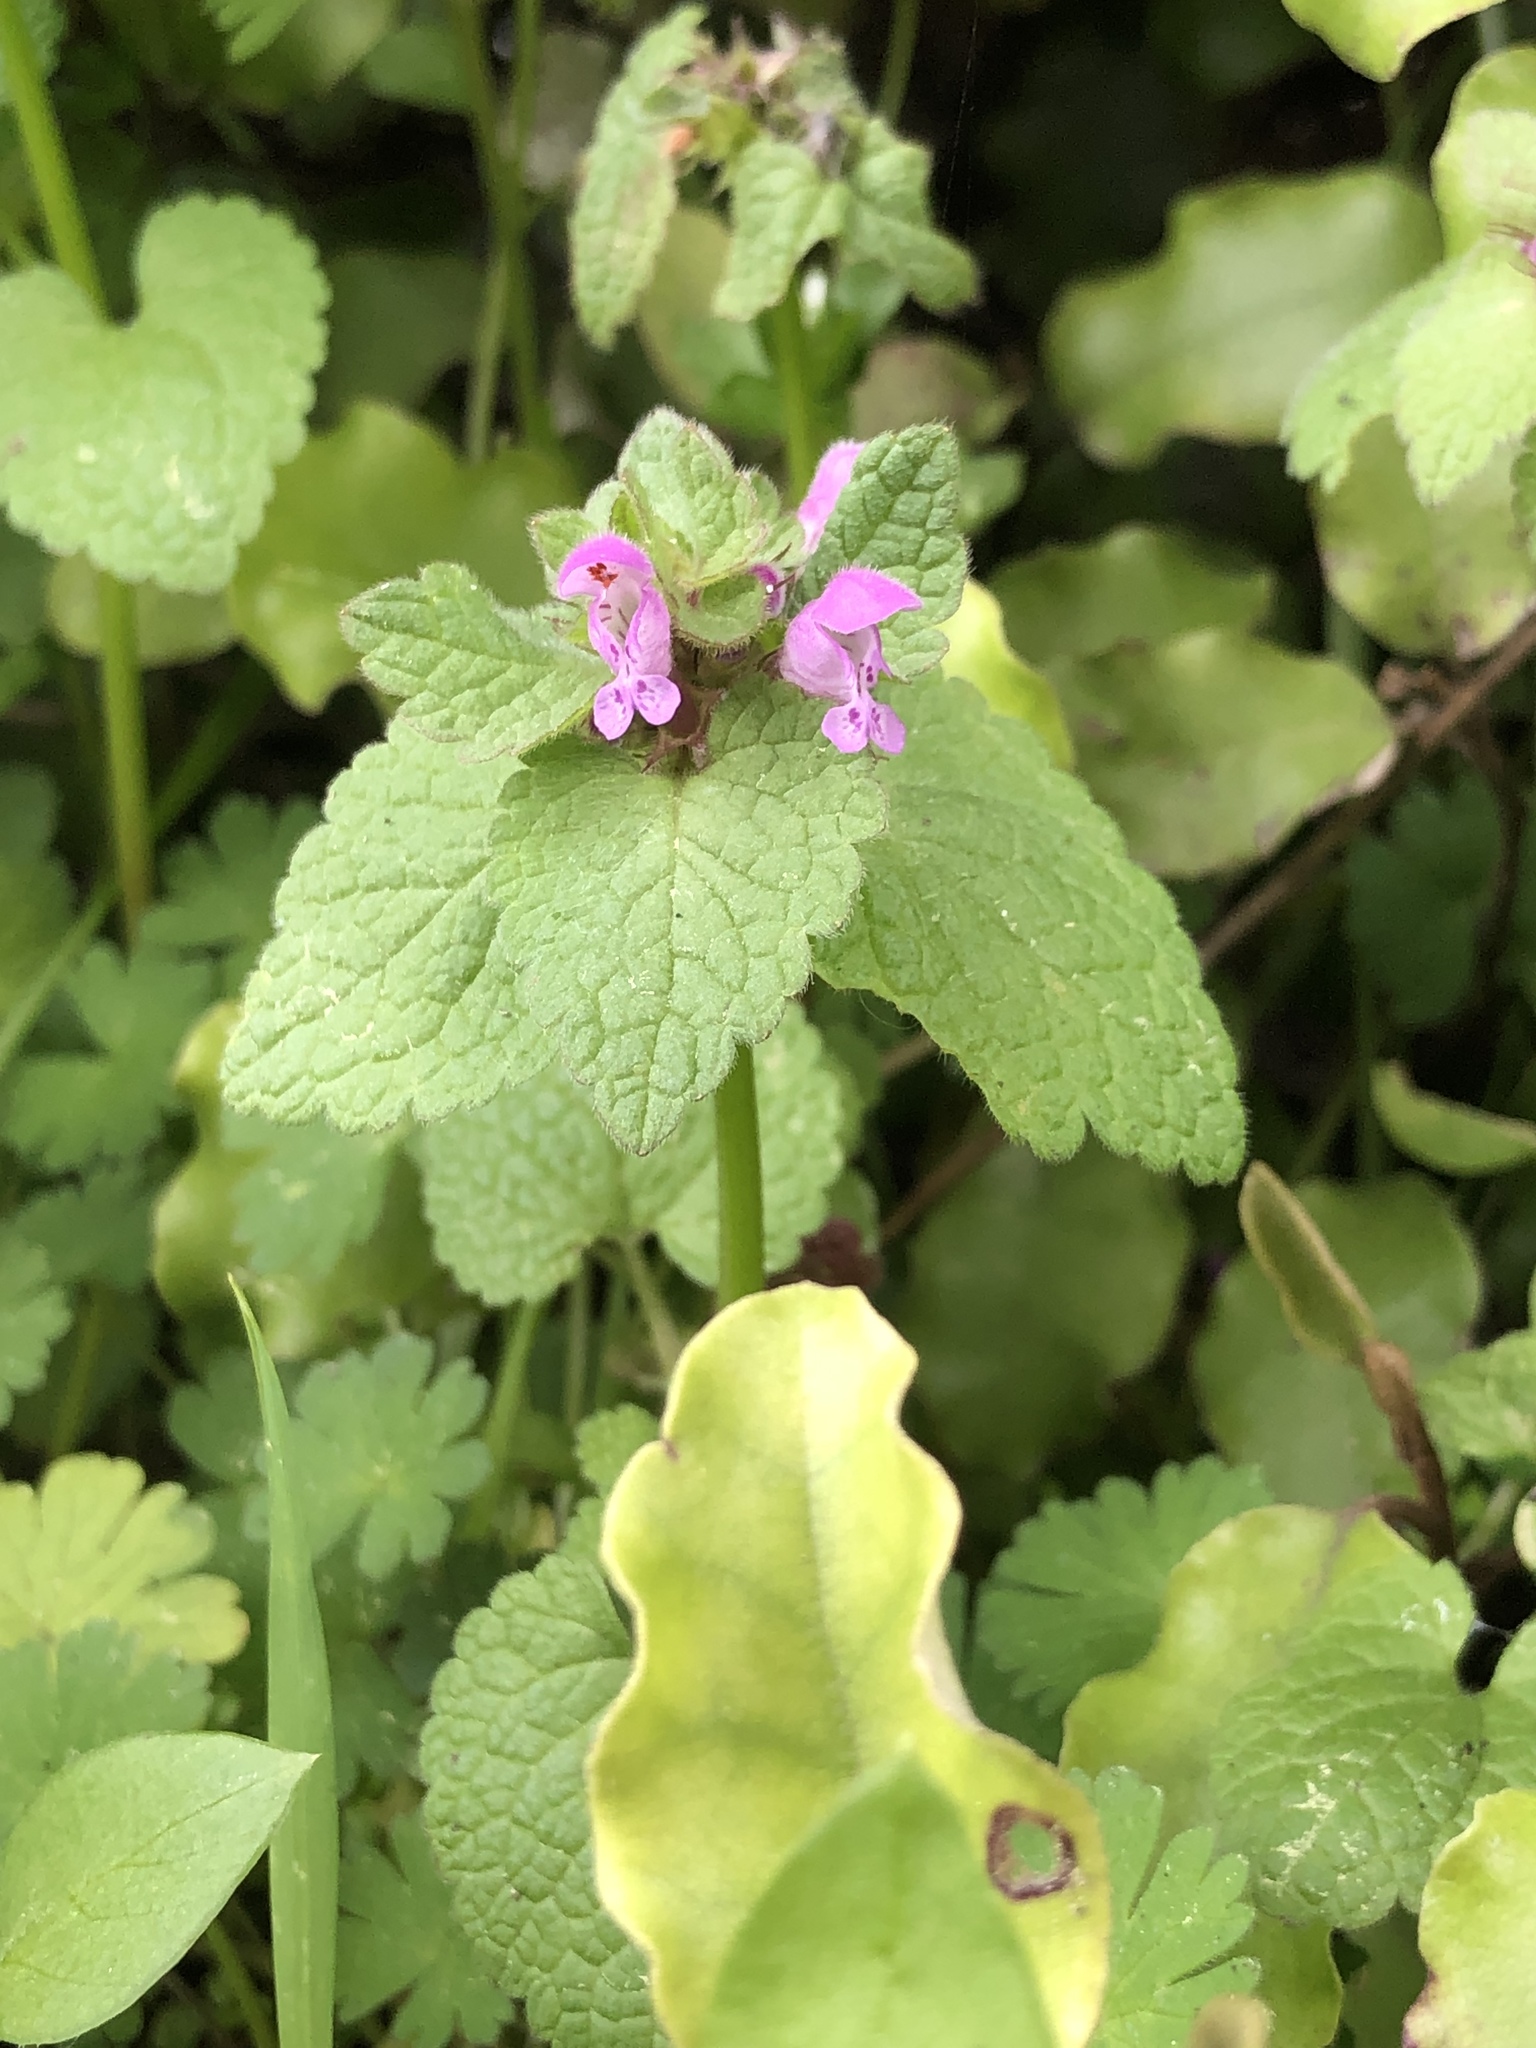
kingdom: Plantae
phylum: Tracheophyta
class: Magnoliopsida
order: Lamiales
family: Lamiaceae
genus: Lamium
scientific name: Lamium purpureum
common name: Red dead-nettle
